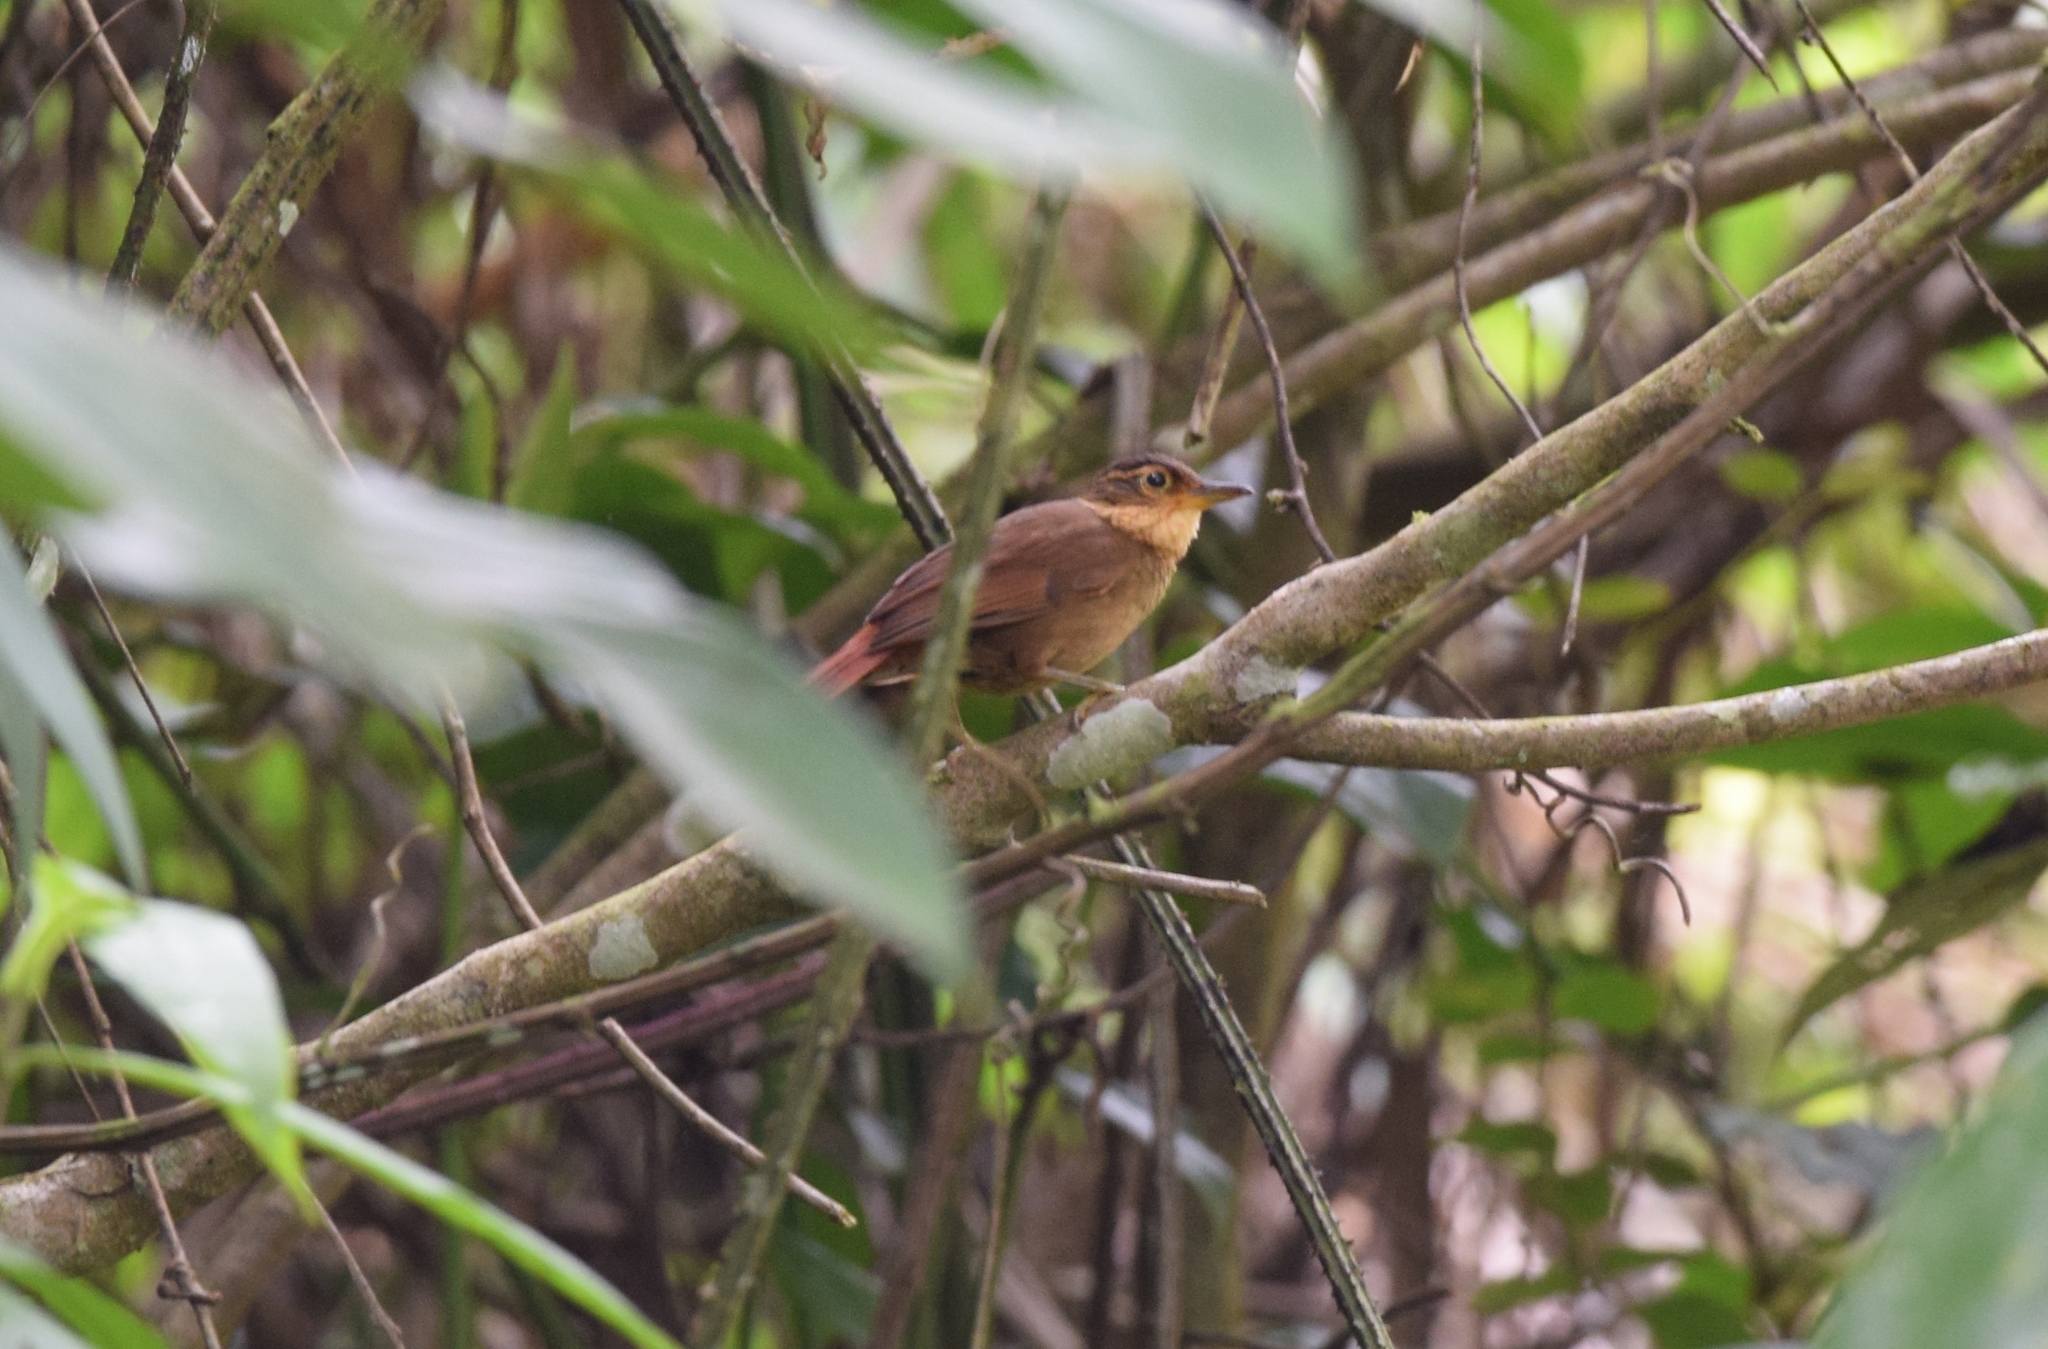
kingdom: Animalia
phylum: Chordata
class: Aves
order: Passeriformes
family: Furnariidae
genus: Automolus
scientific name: Automolus ochrolaemus
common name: Buff-throated foliage-gleaner
